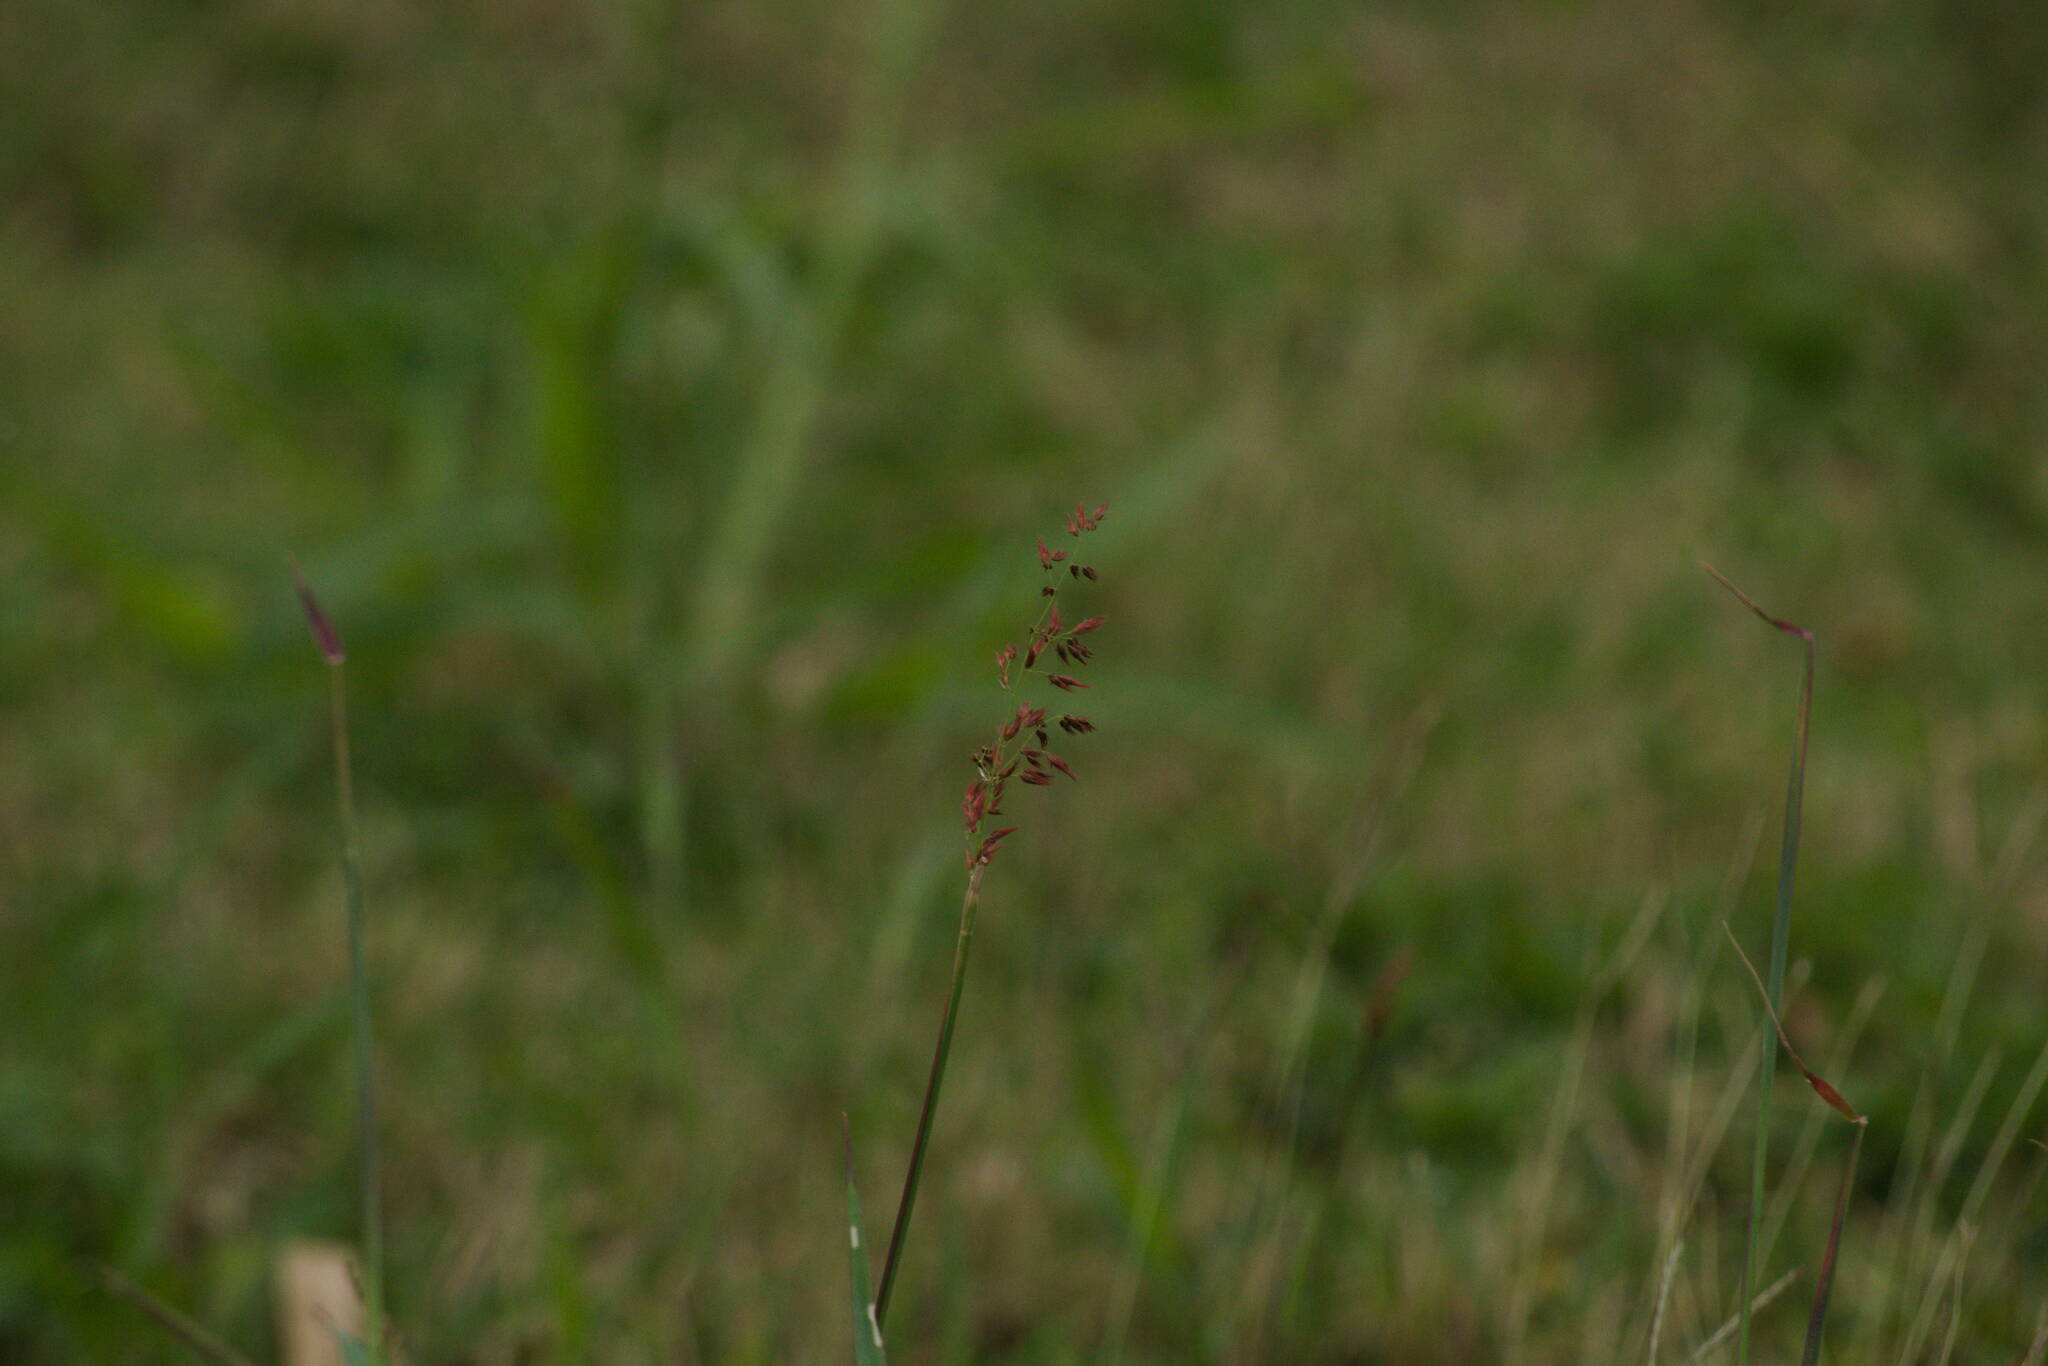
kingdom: Plantae
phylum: Tracheophyta
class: Liliopsida
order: Poales
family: Poaceae
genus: Melinis
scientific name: Melinis repens
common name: Rose natal grass
